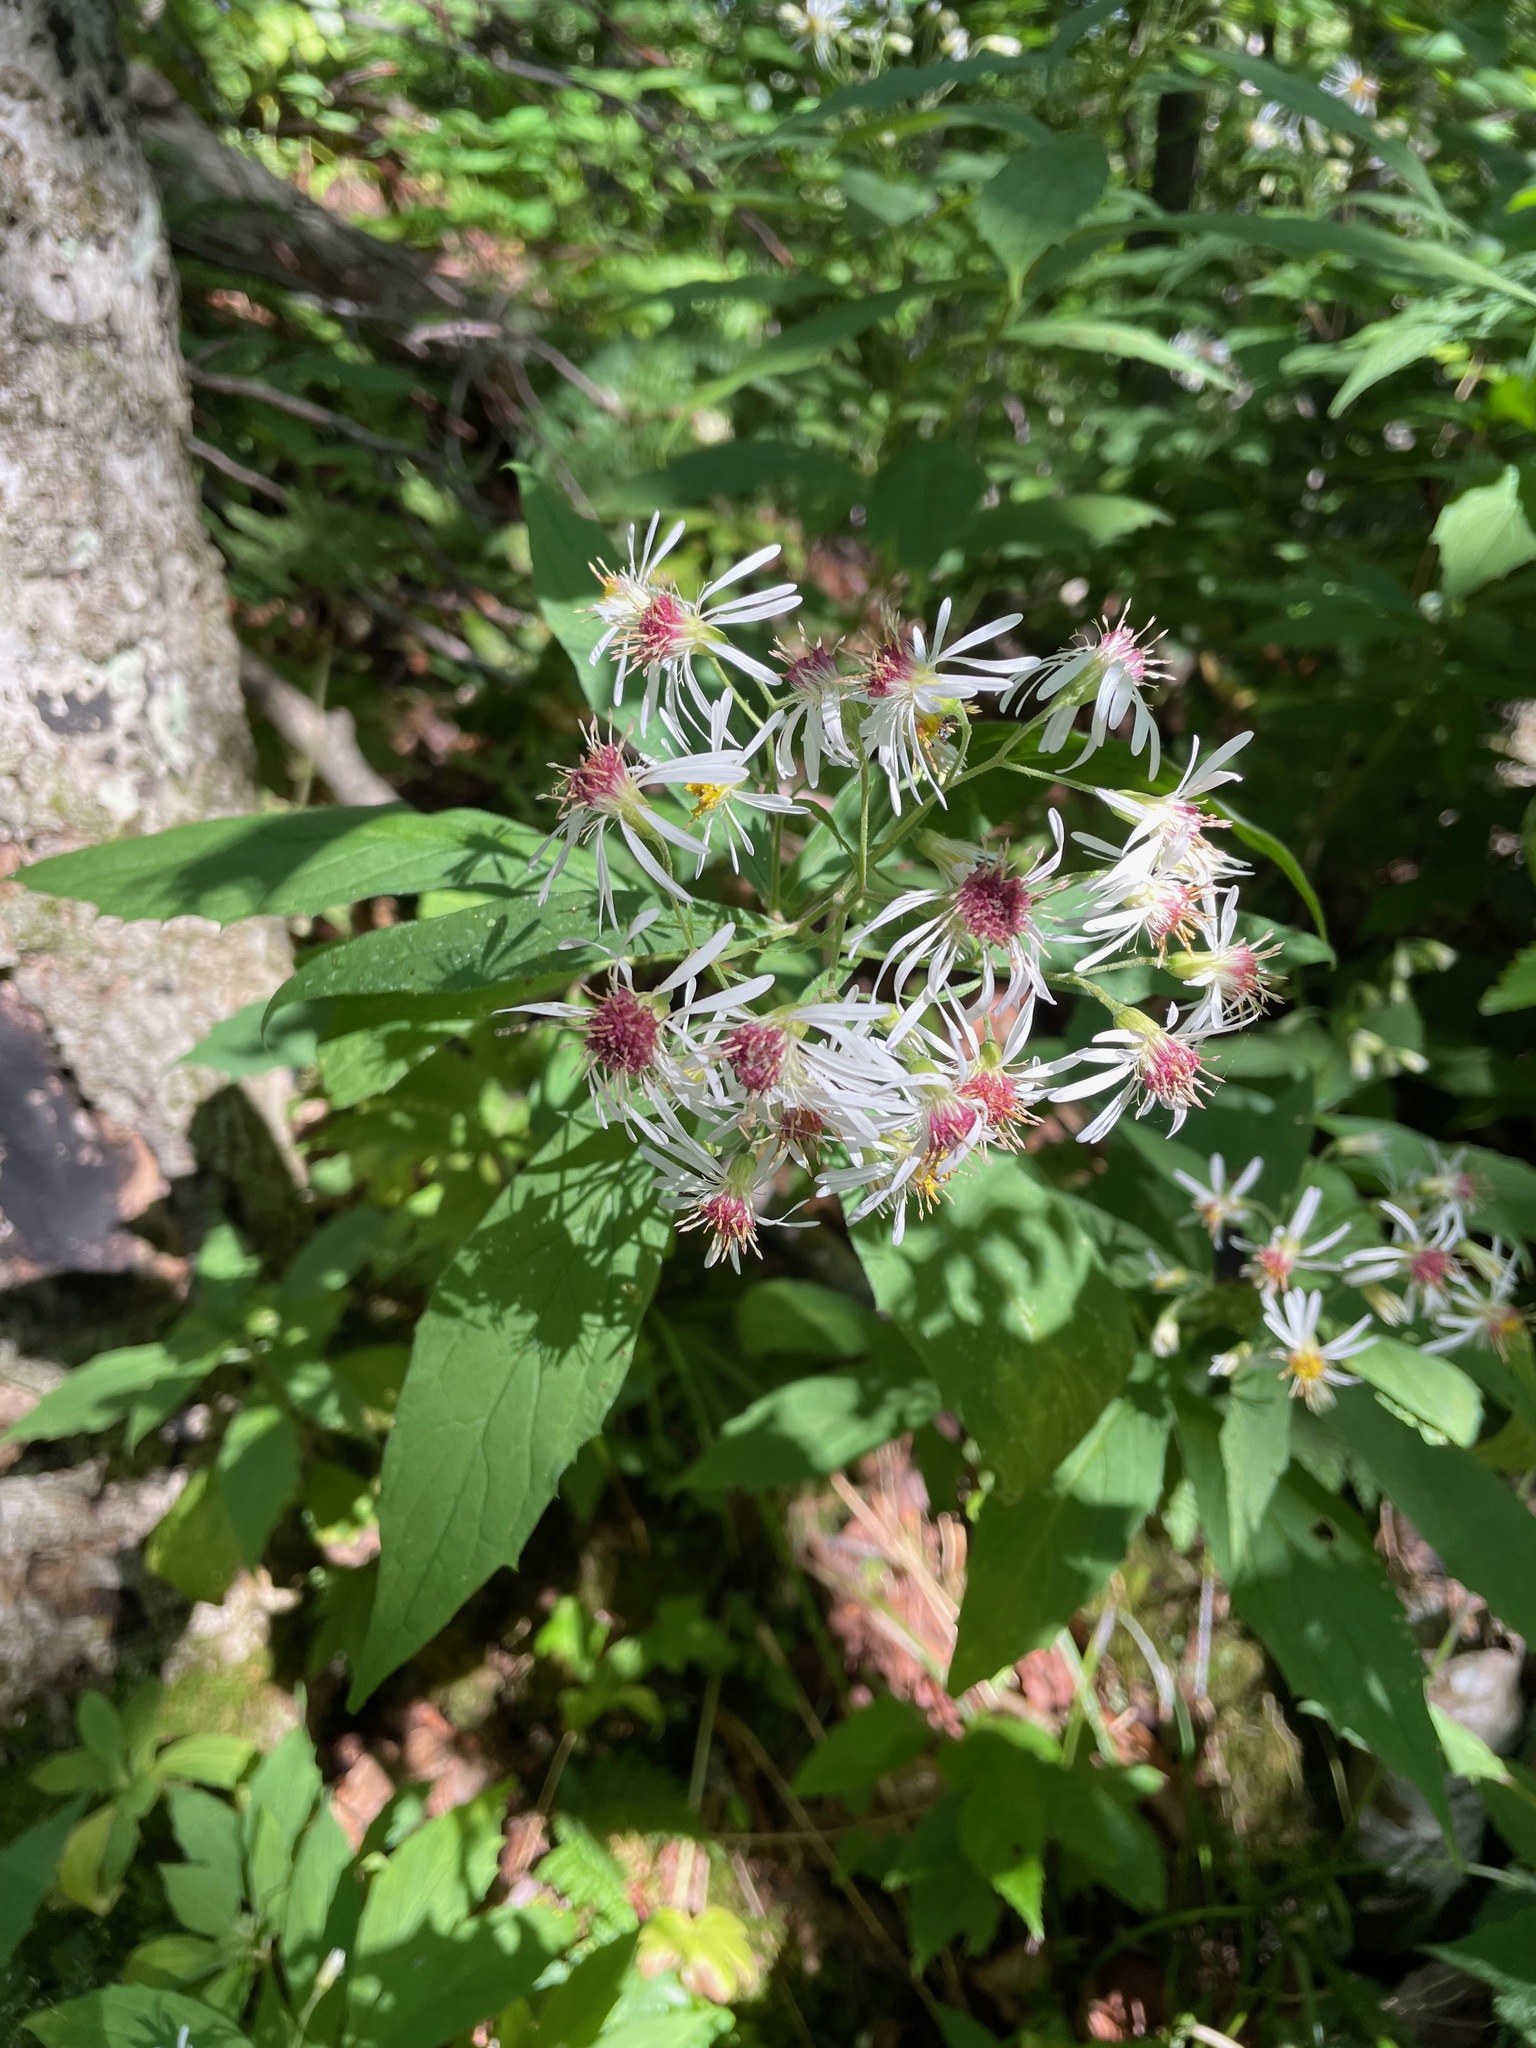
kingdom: Plantae
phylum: Tracheophyta
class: Magnoliopsida
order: Asterales
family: Asteraceae
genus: Oclemena
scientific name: Oclemena acuminata
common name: Mountain aster
